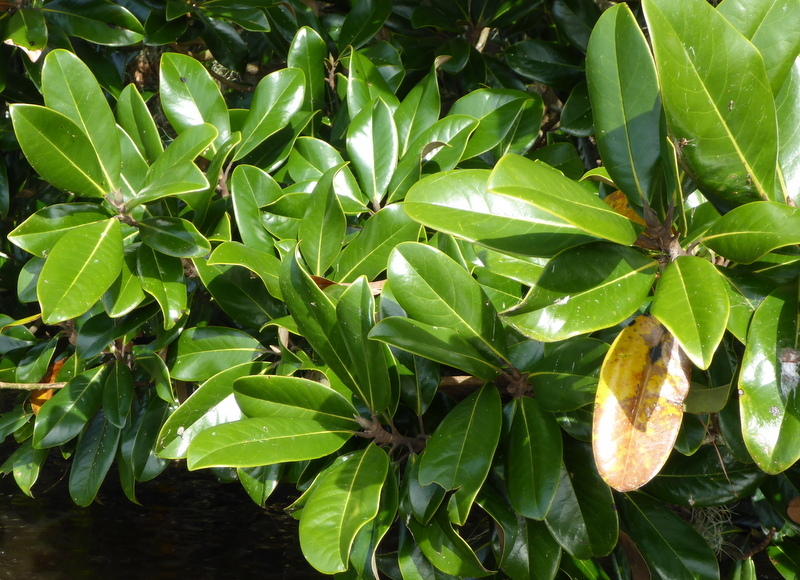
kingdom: Plantae
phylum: Tracheophyta
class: Magnoliopsida
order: Magnoliales
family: Magnoliaceae
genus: Magnolia
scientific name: Magnolia grandiflora
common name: Southern magnolia
